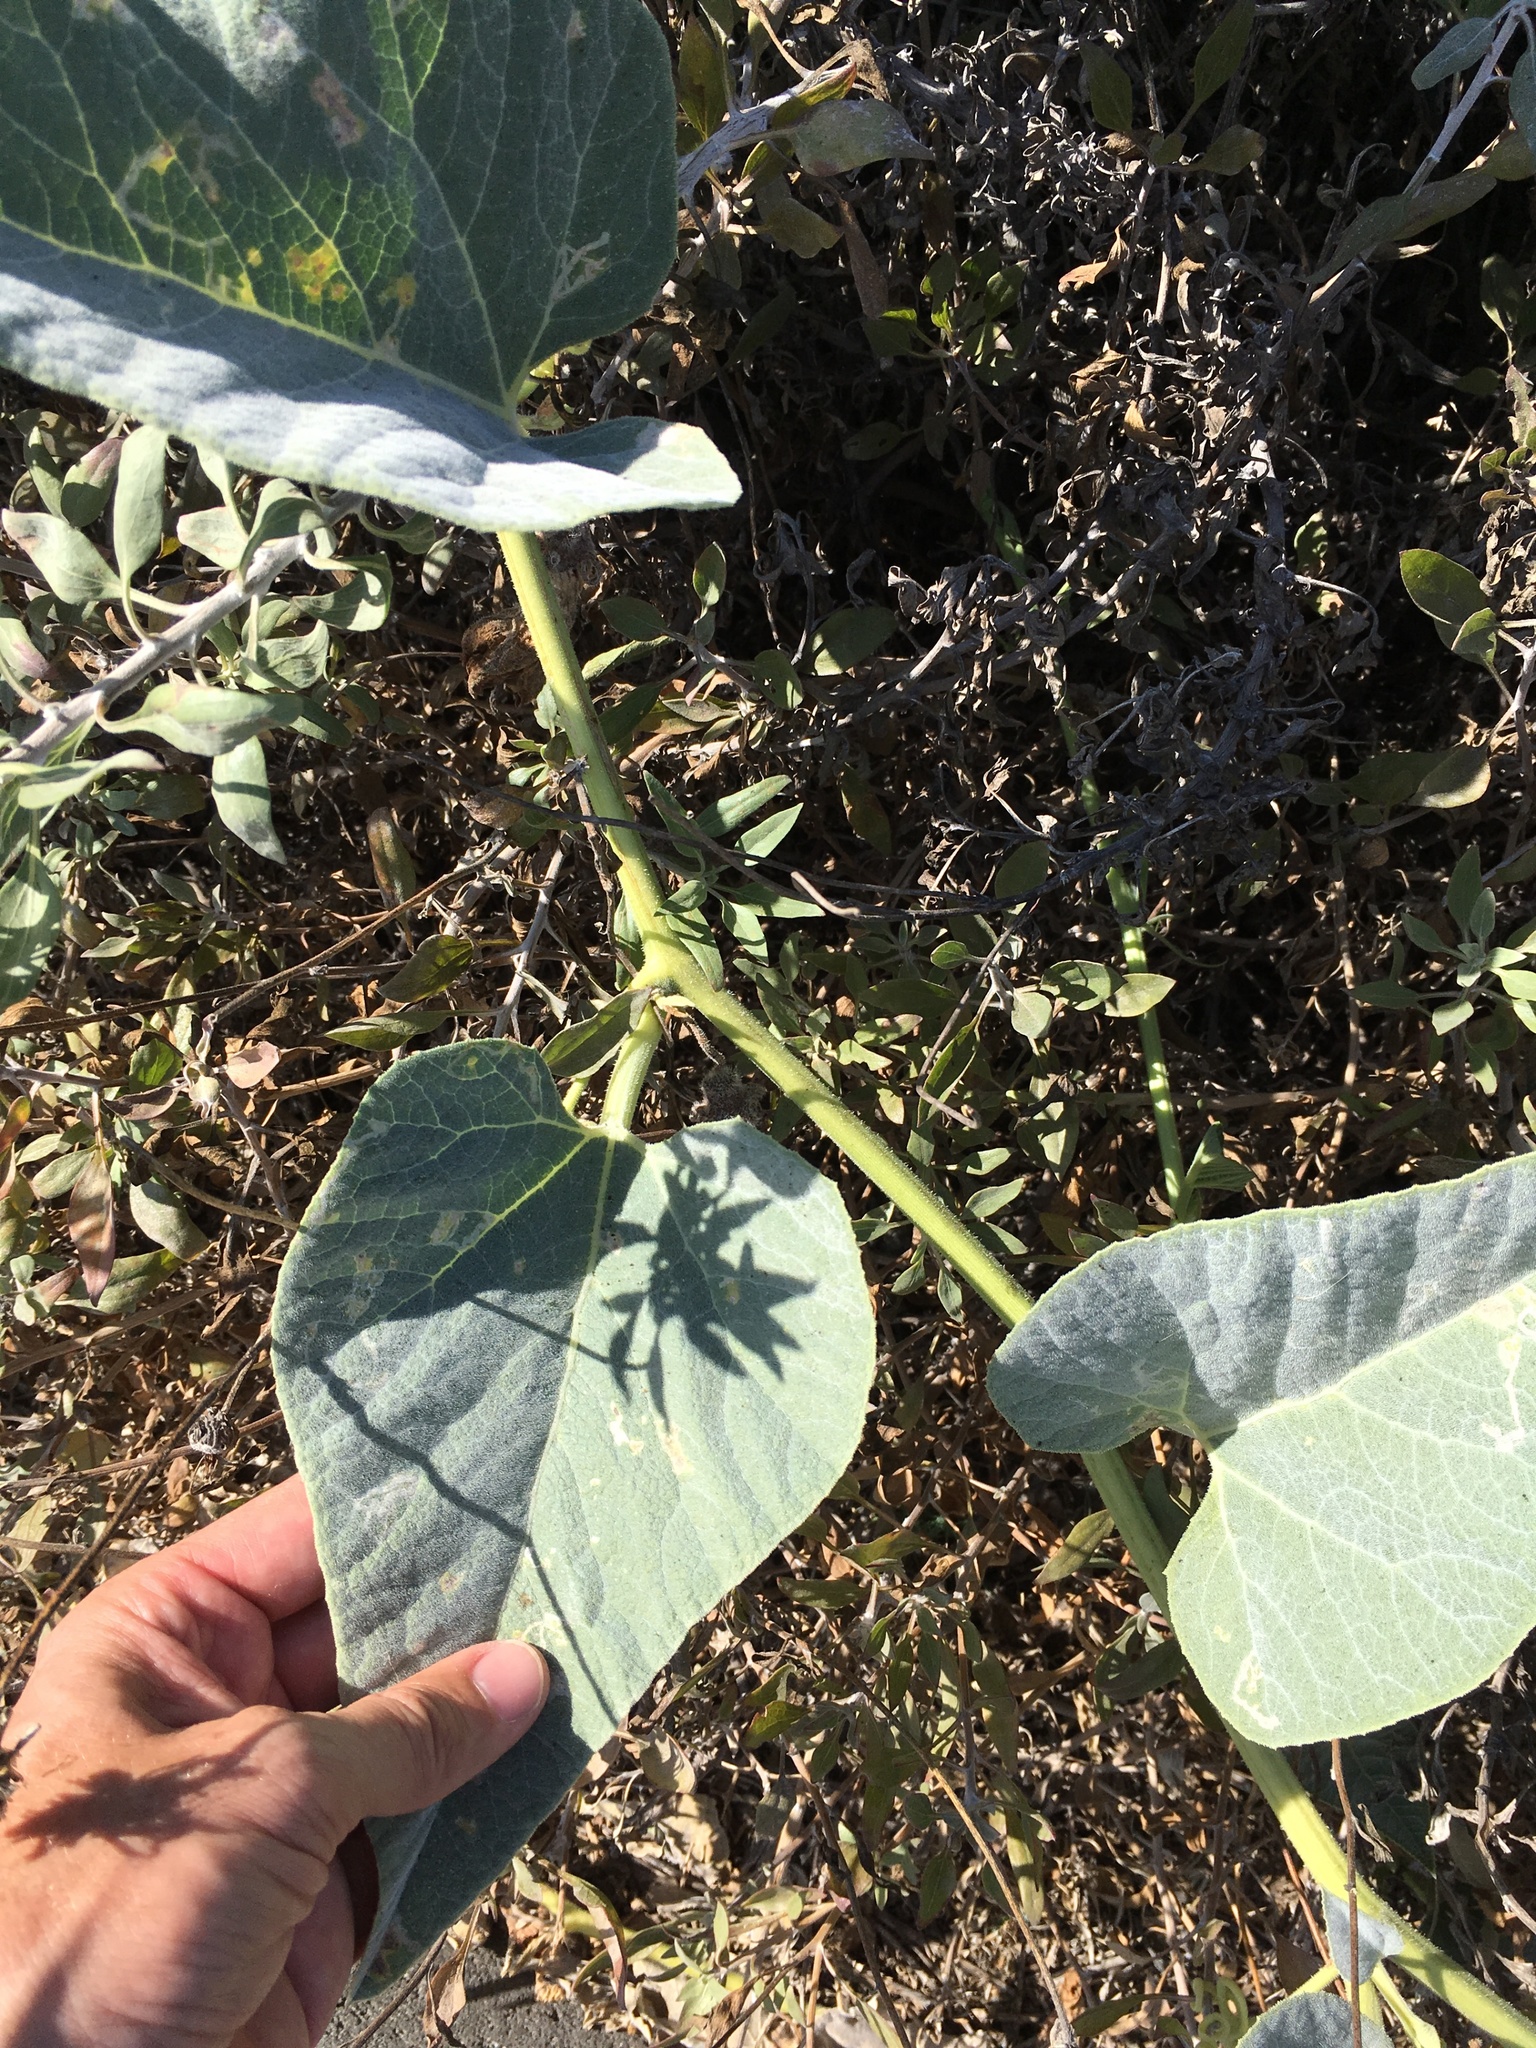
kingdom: Plantae
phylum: Tracheophyta
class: Magnoliopsida
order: Cucurbitales
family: Cucurbitaceae
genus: Cucurbita
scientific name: Cucurbita foetidissima
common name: Buffalo gourd
